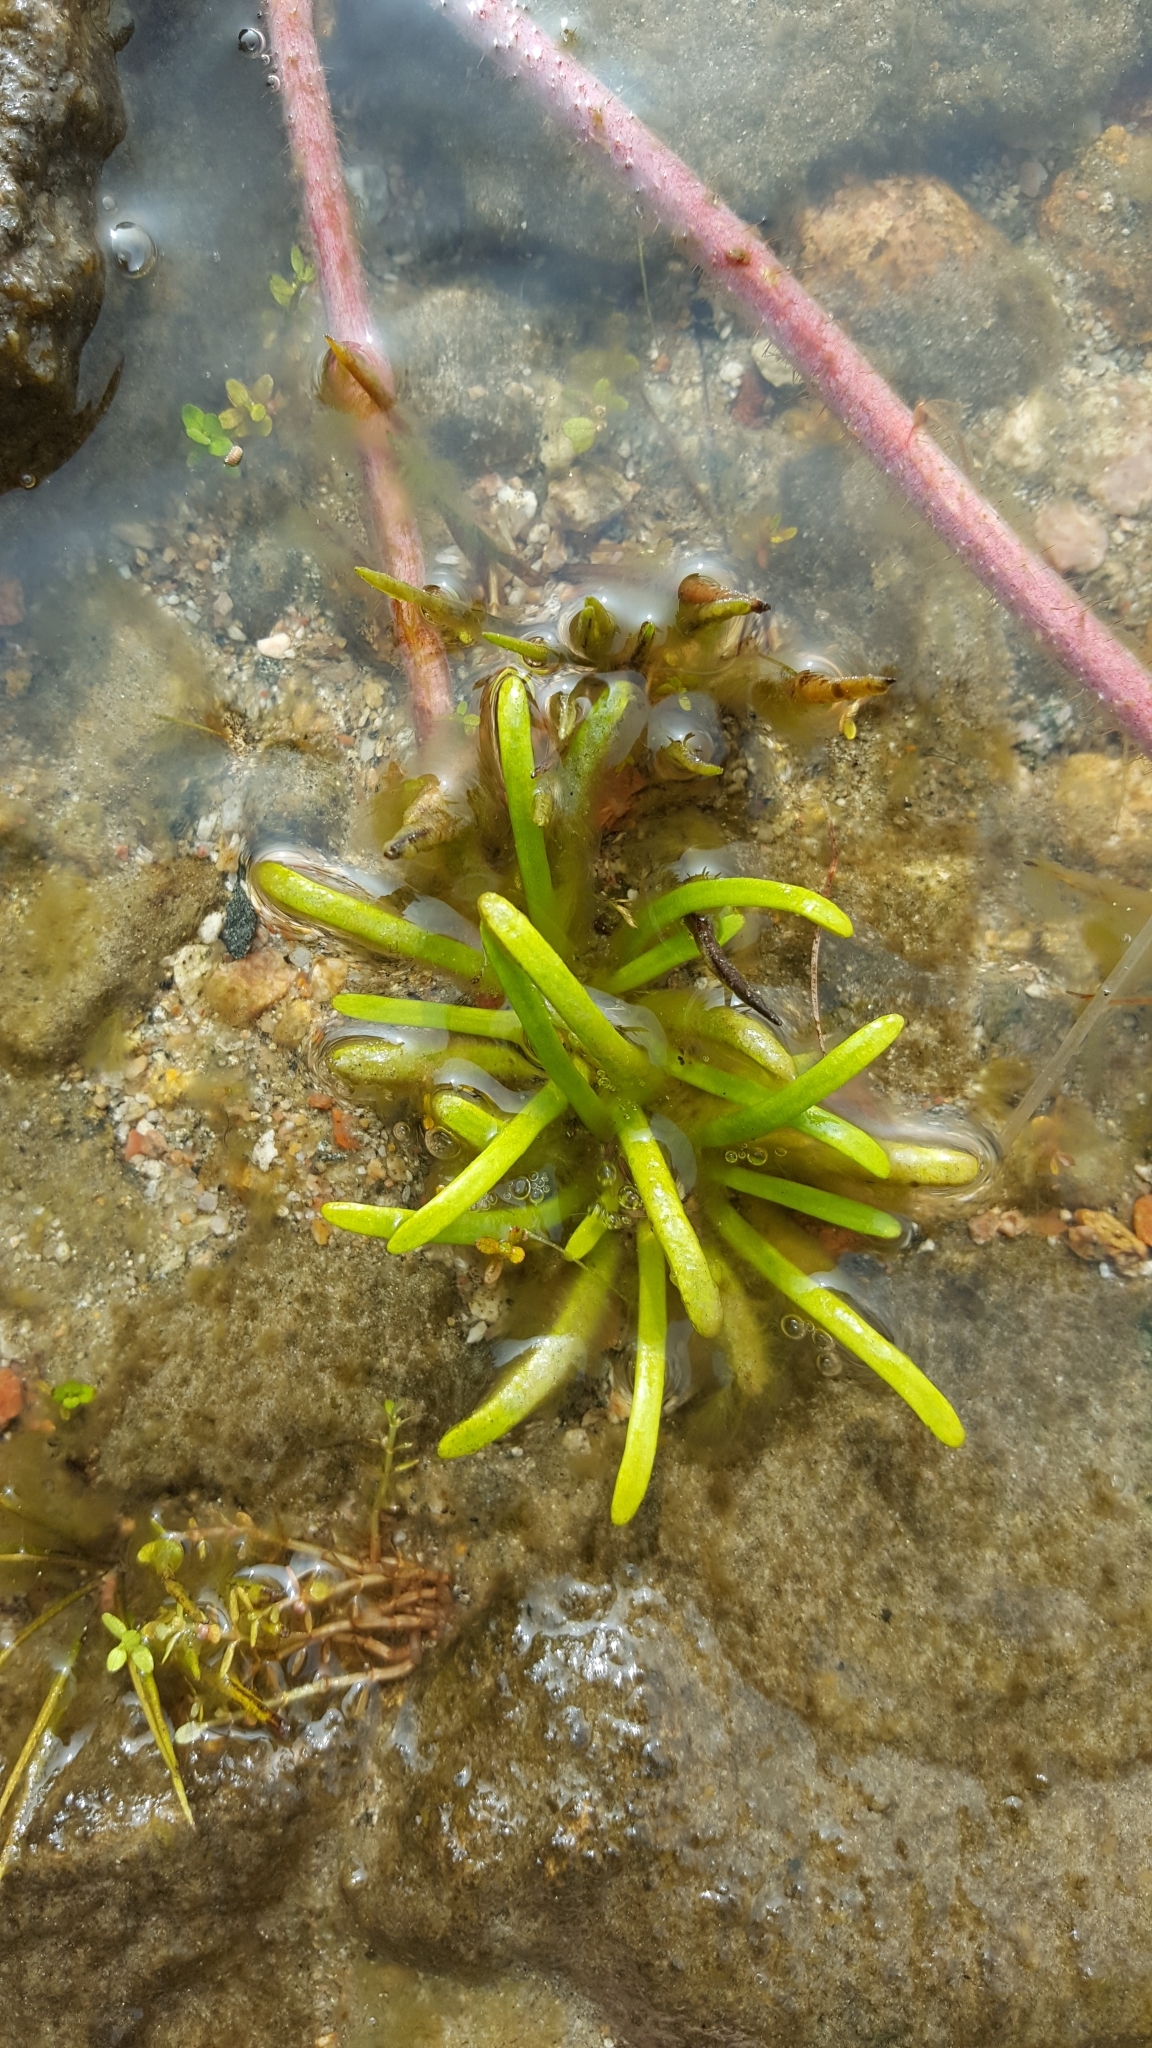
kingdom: Plantae
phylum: Tracheophyta
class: Magnoliopsida
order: Asterales
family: Campanulaceae
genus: Lobelia
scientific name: Lobelia dortmanna
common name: Water lobelia
